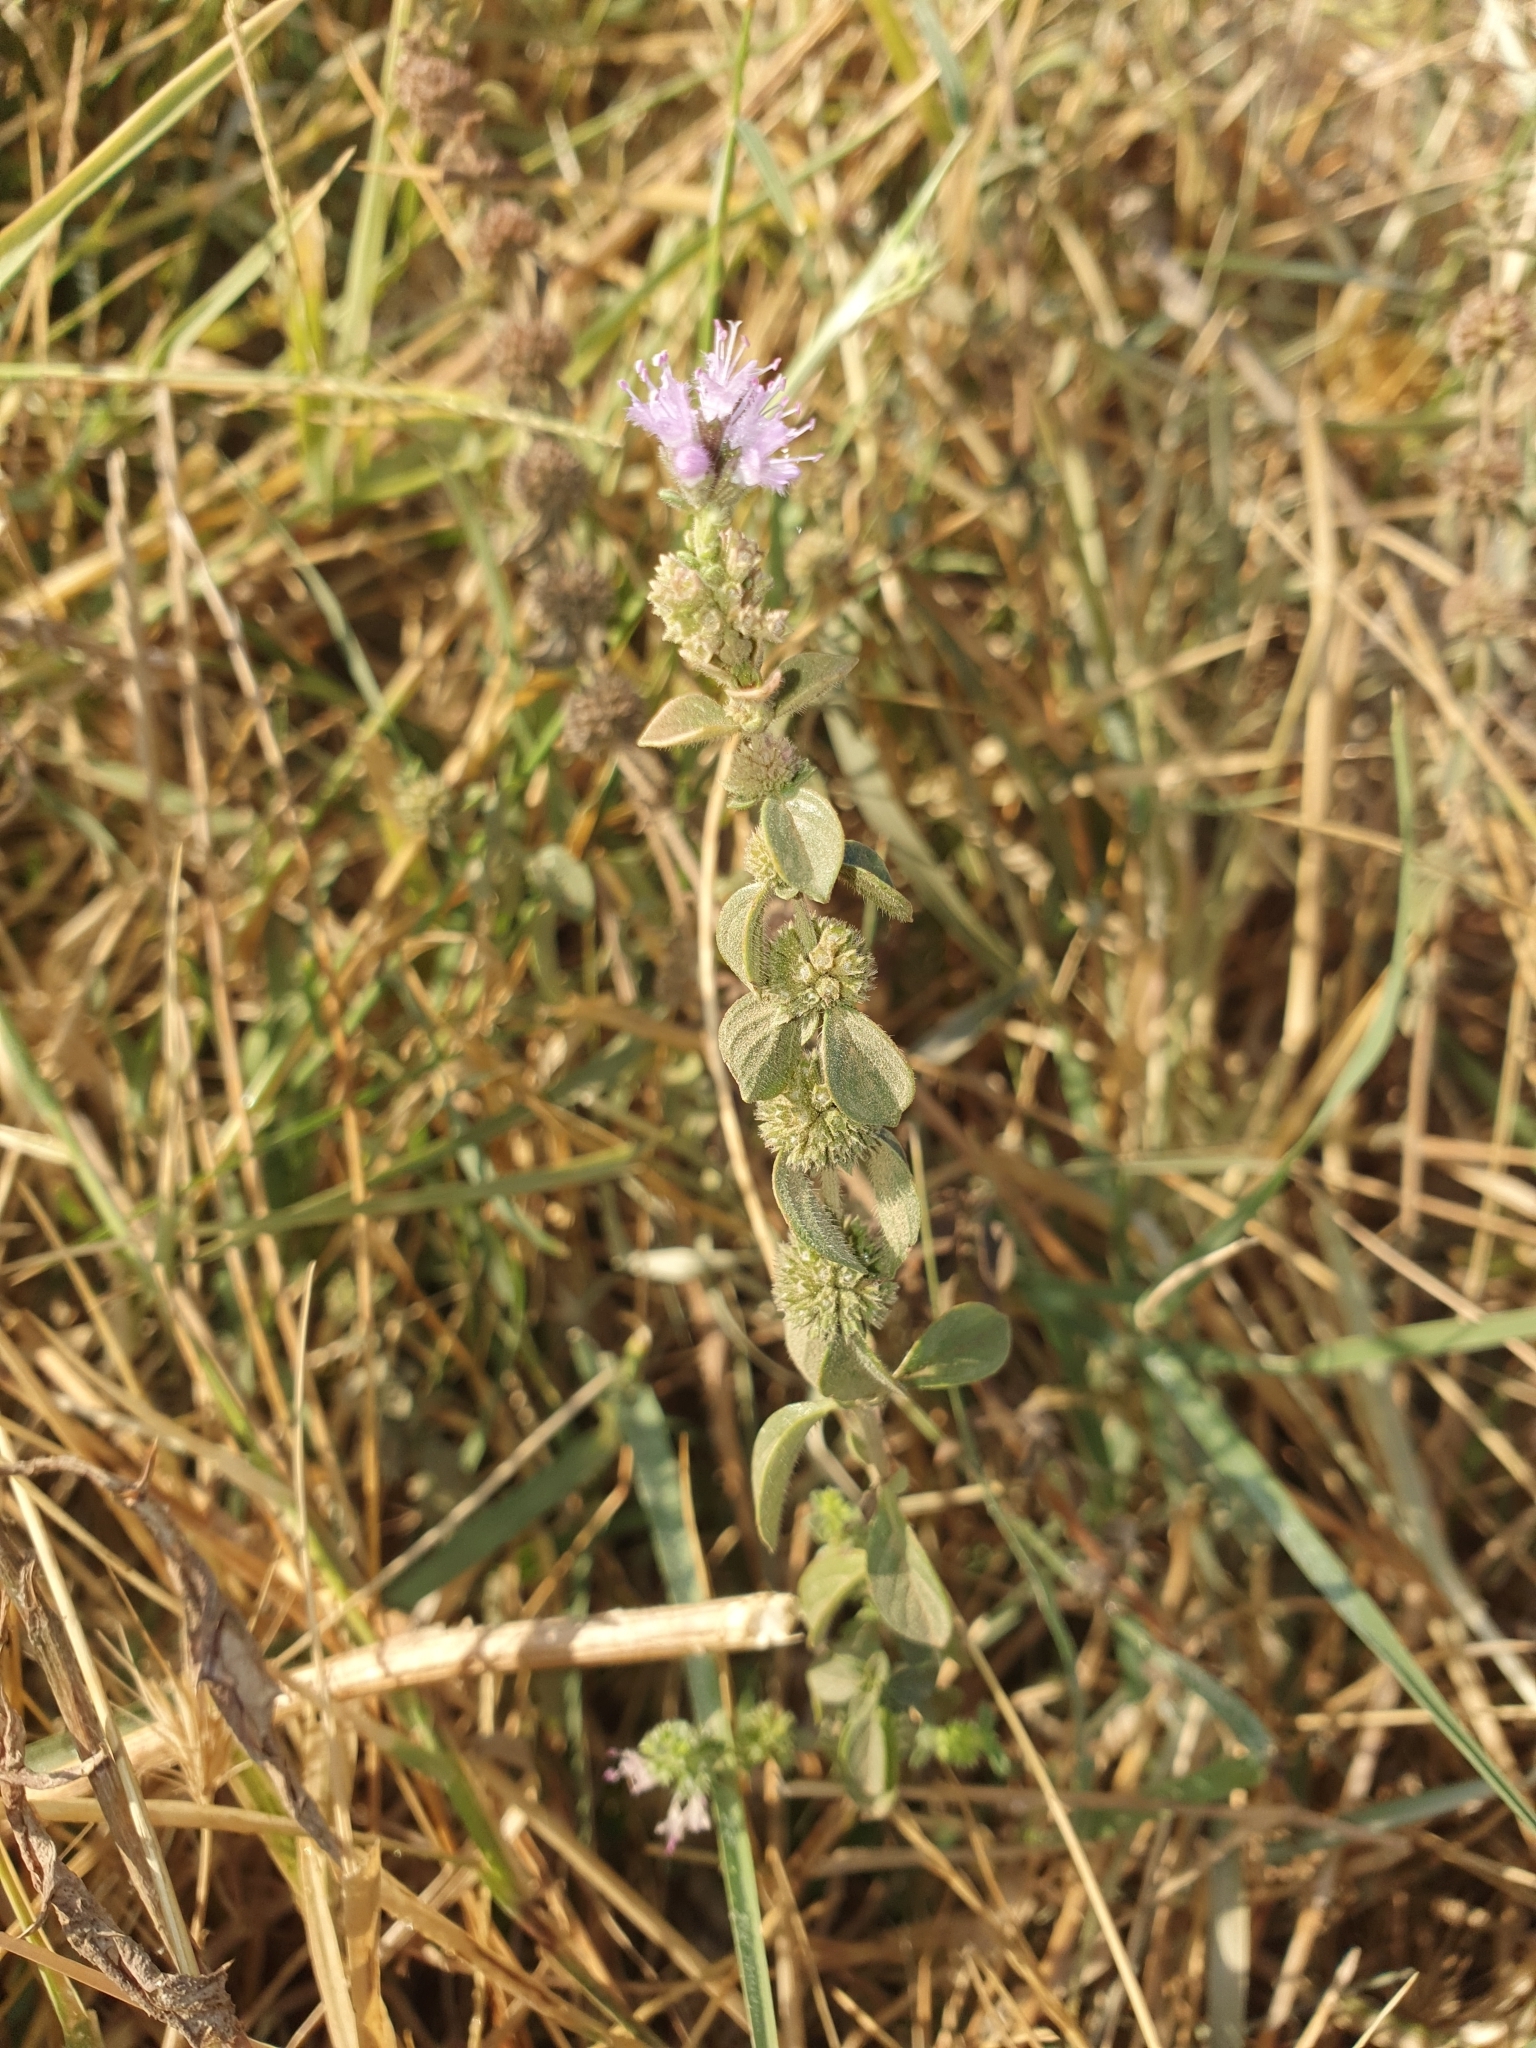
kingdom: Plantae
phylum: Tracheophyta
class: Magnoliopsida
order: Lamiales
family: Lamiaceae
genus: Mentha
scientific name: Mentha pulegium
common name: Pennyroyal
